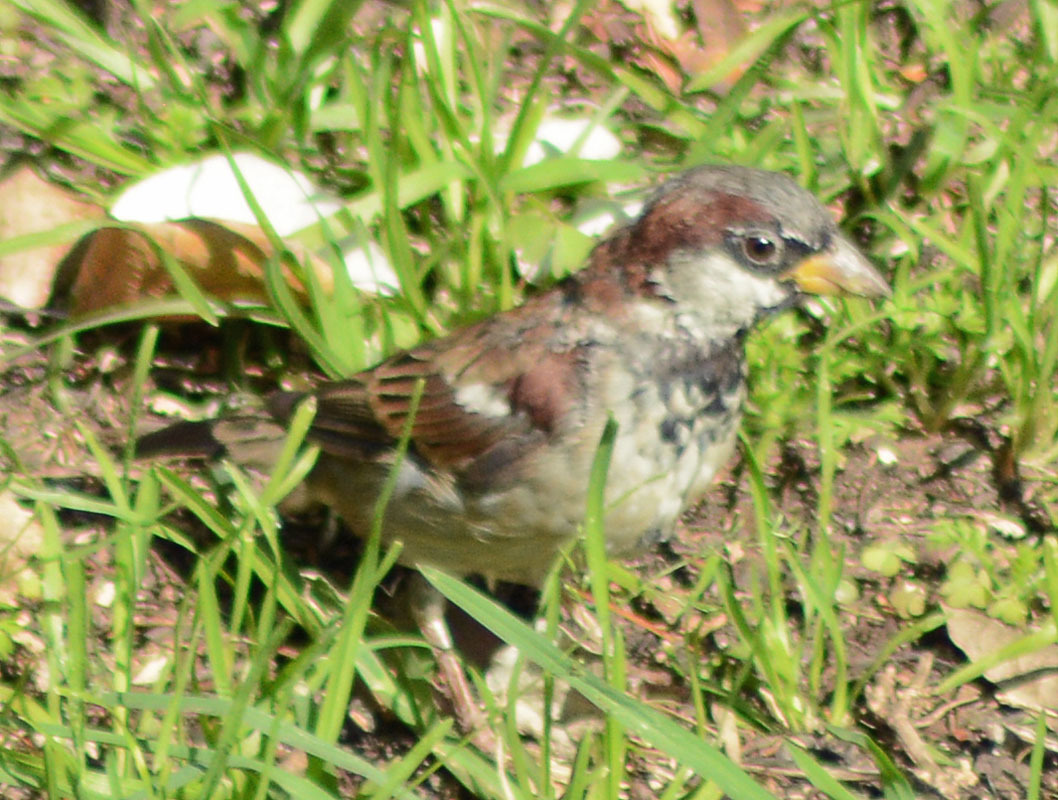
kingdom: Animalia
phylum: Chordata
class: Aves
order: Passeriformes
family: Passeridae
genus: Passer
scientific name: Passer domesticus
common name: House sparrow
